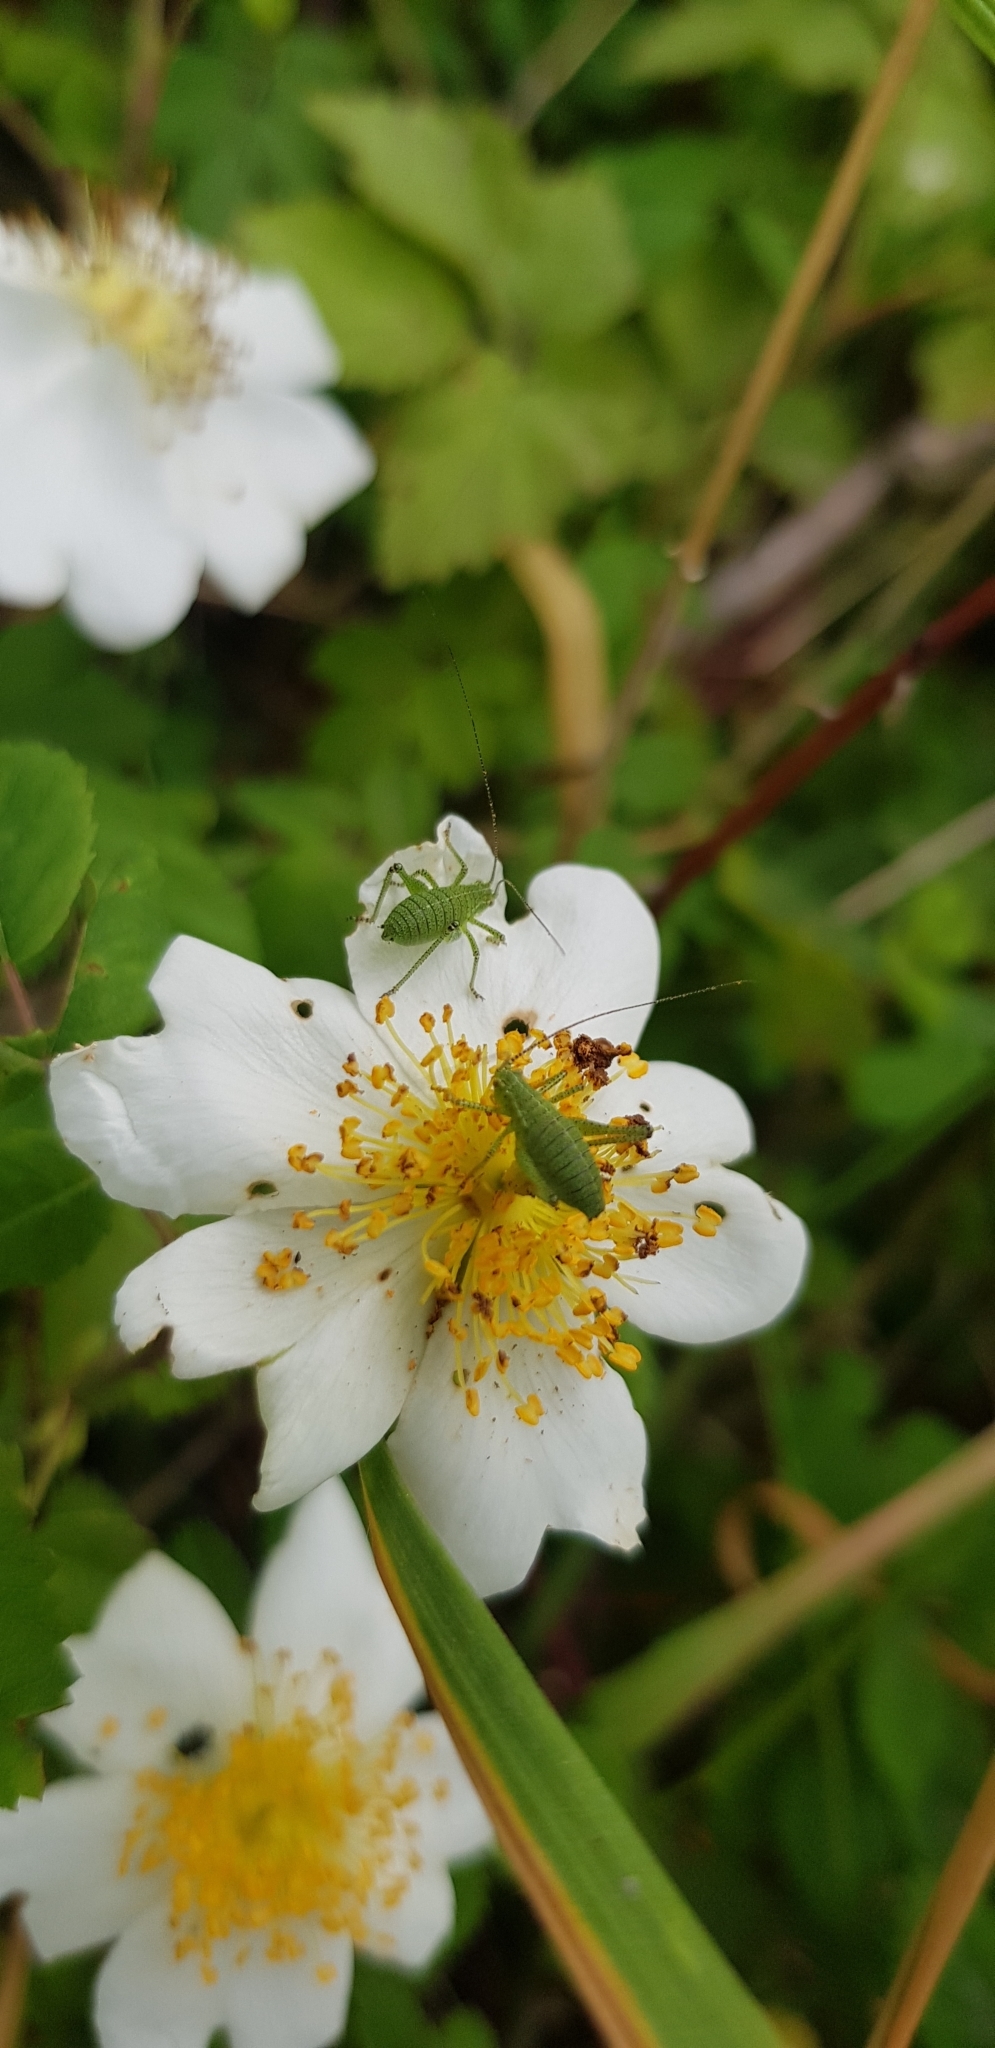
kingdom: Animalia
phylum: Arthropoda
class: Insecta
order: Orthoptera
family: Tettigoniidae
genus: Leptophyes
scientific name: Leptophyes punctatissima
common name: Speckled bush-cricket
